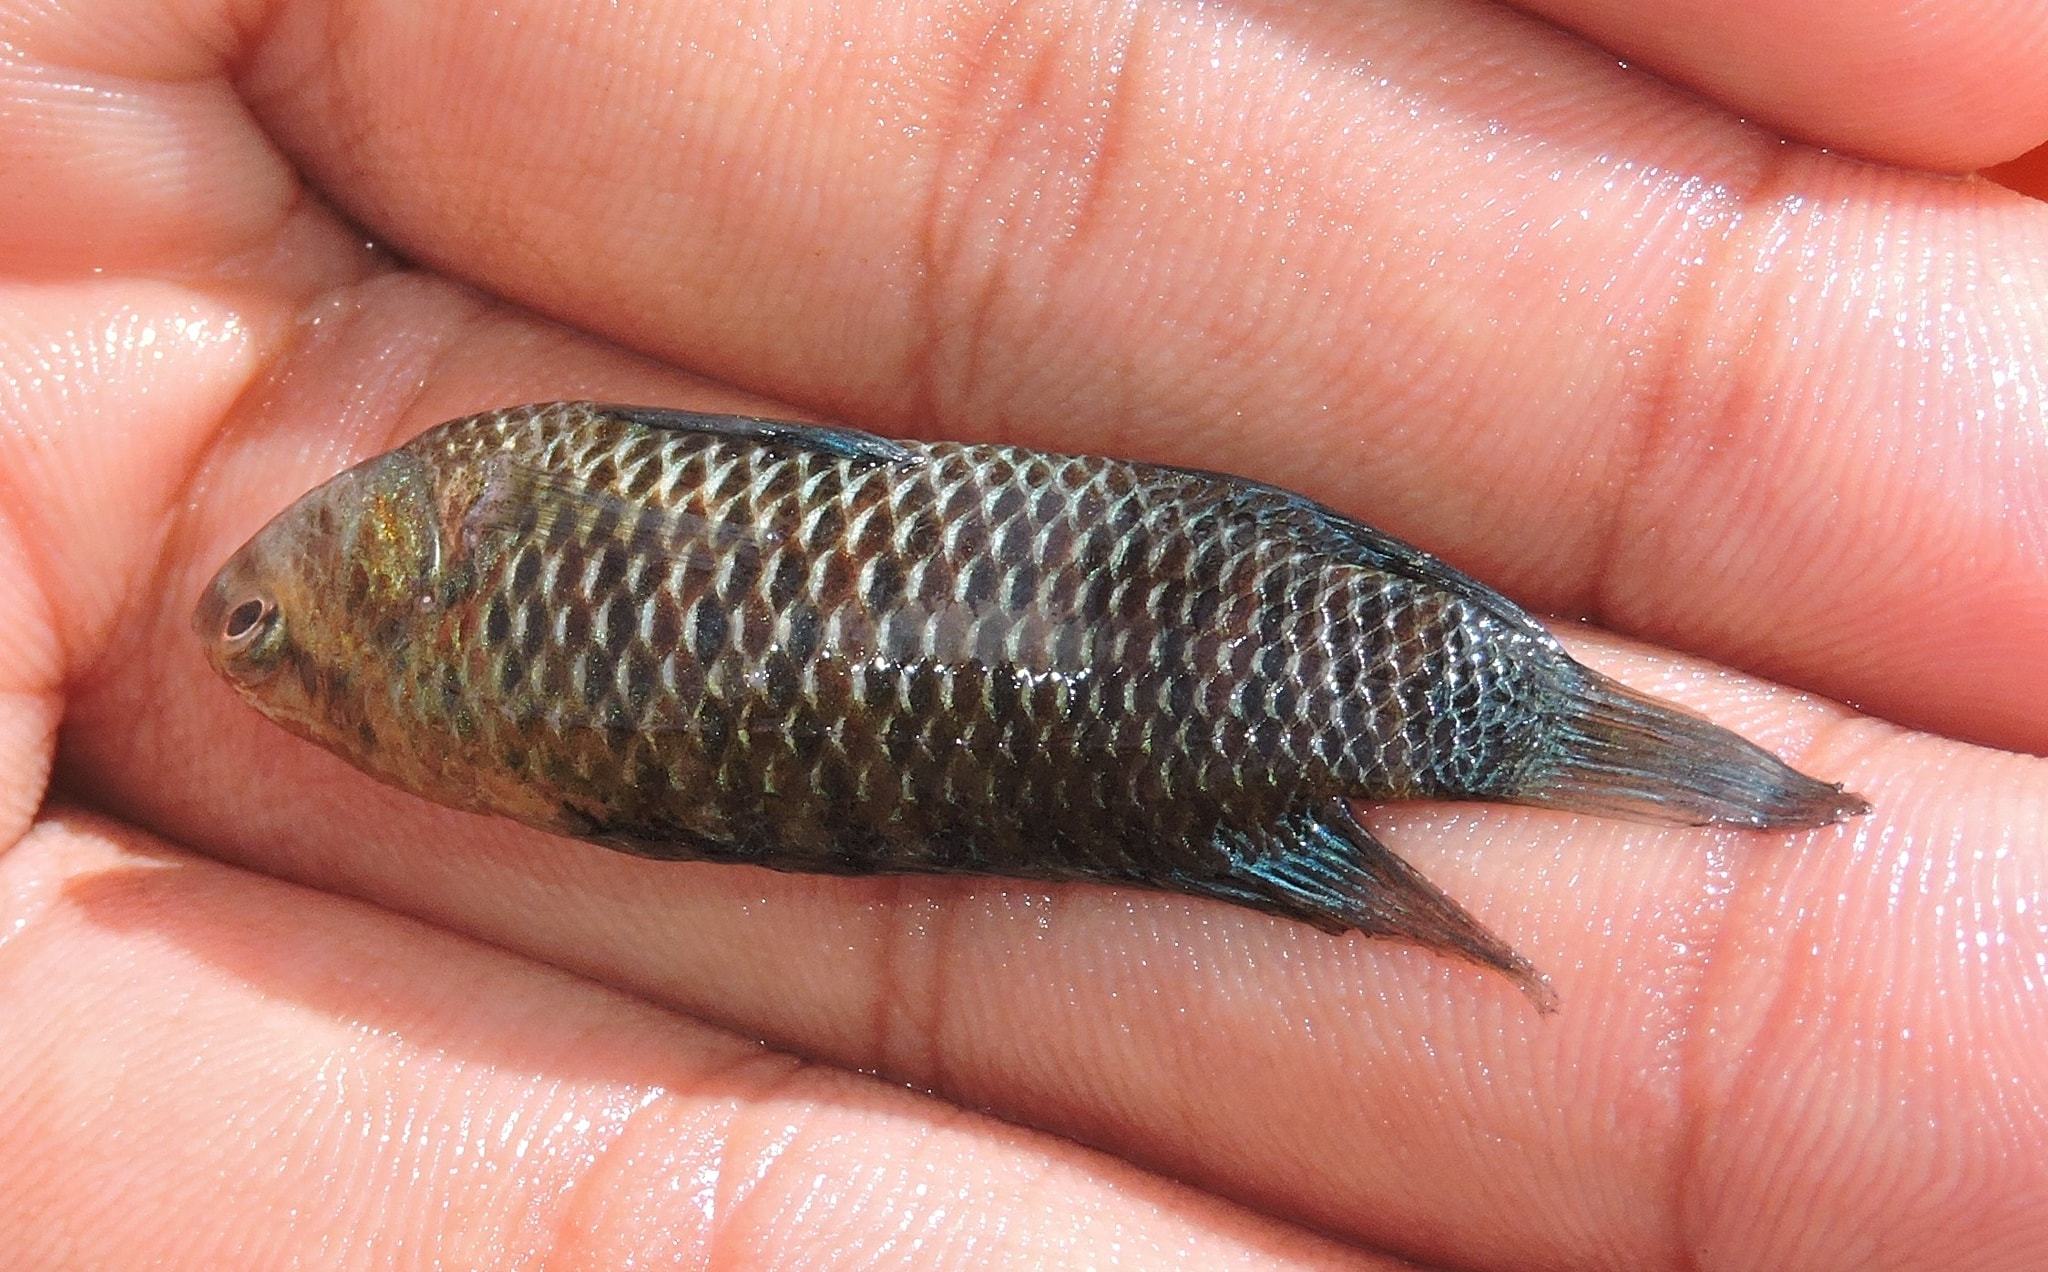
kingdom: Animalia
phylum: Chordata
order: Perciformes
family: Badidae
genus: Badis
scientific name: Badis badis
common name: Badis
